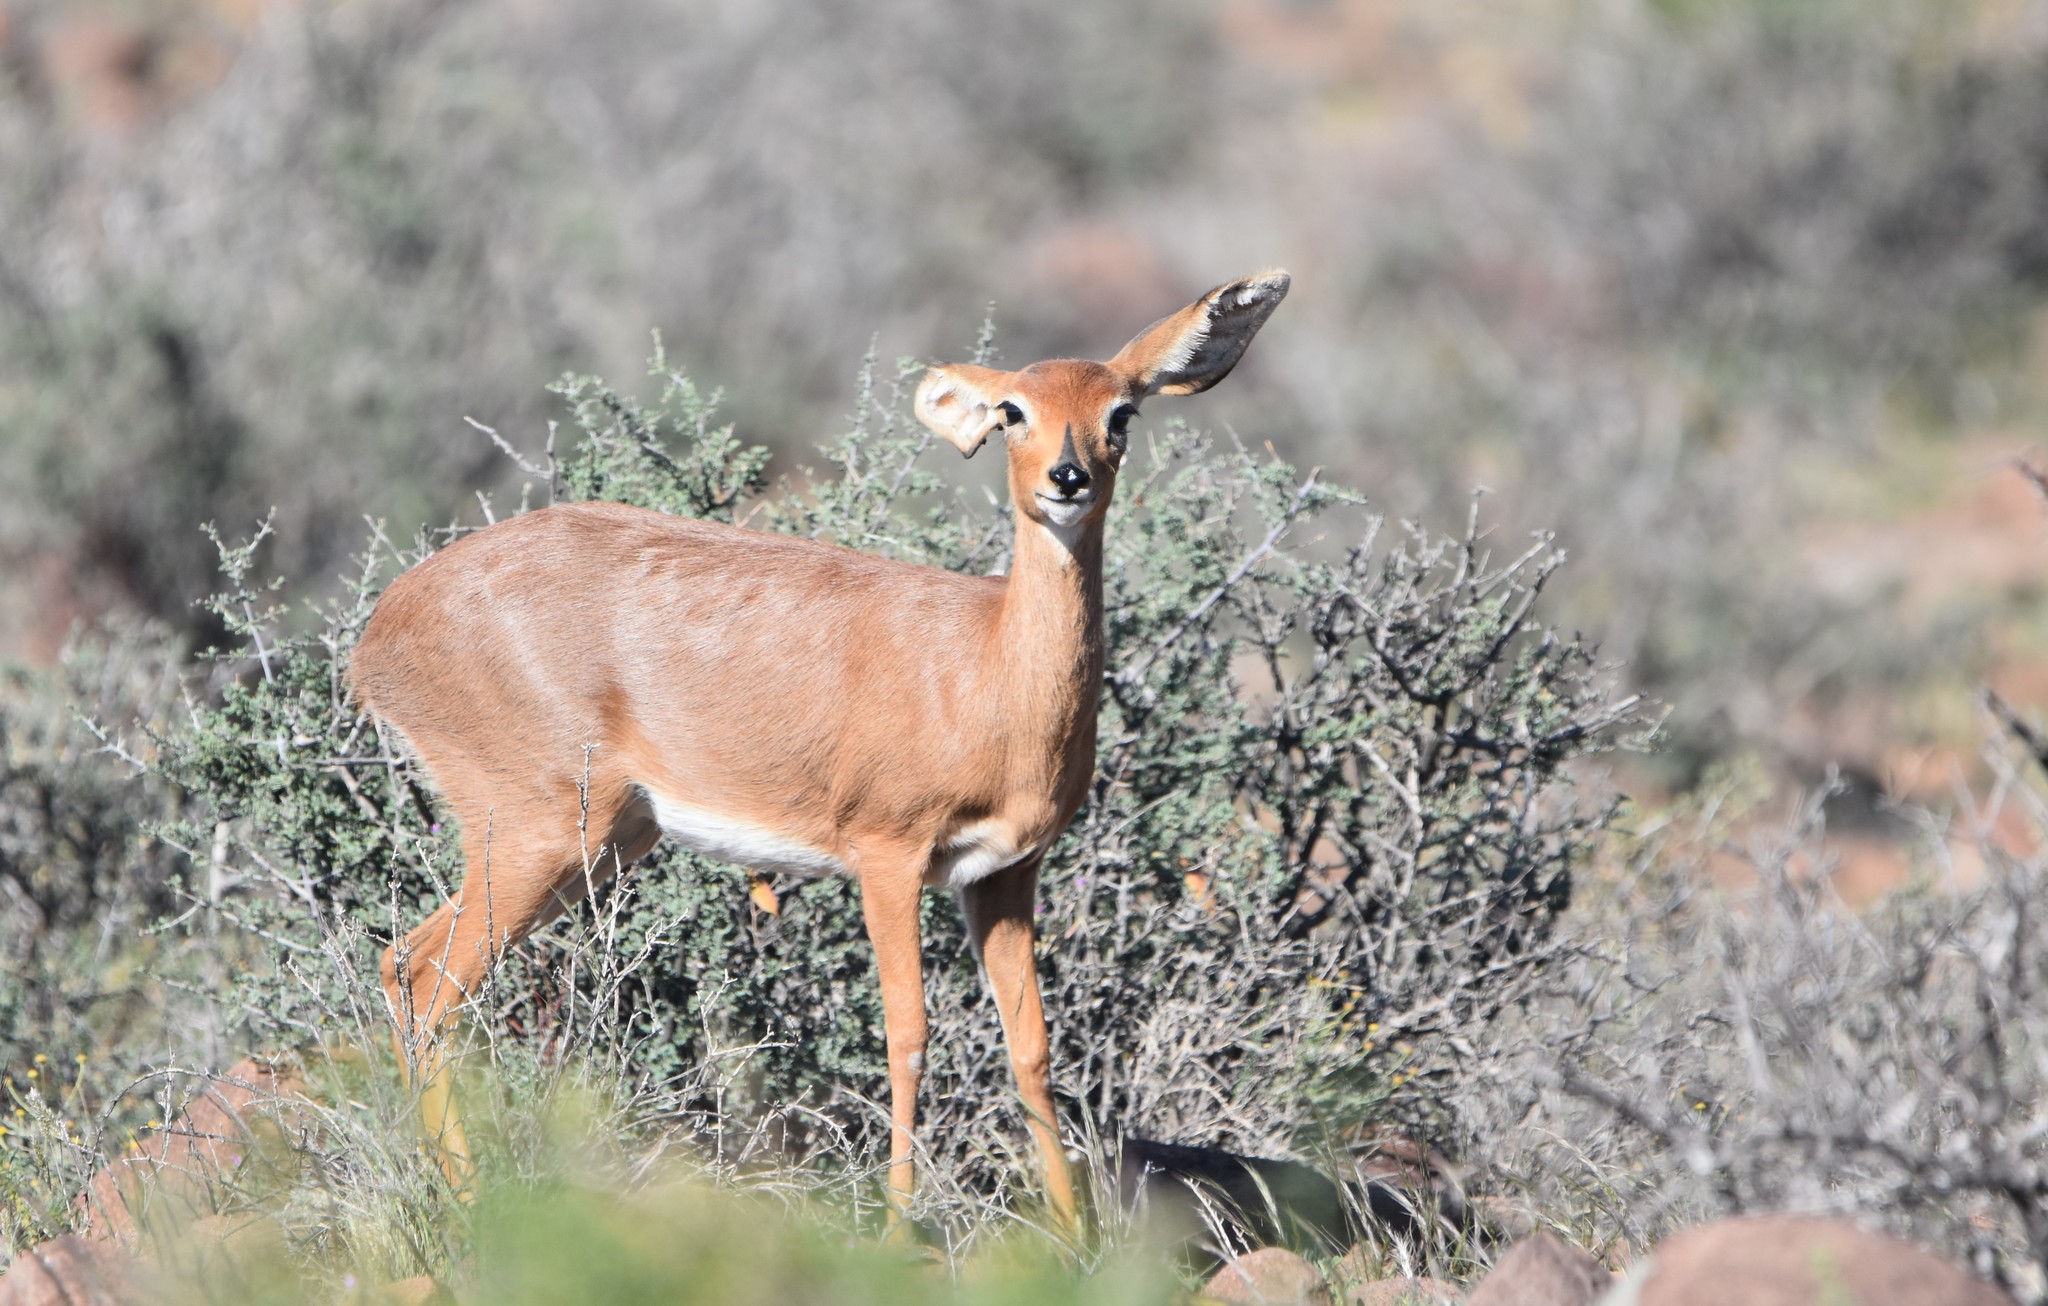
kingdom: Animalia
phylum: Chordata
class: Mammalia
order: Artiodactyla
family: Bovidae
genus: Raphicerus
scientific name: Raphicerus campestris
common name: Steenbok
